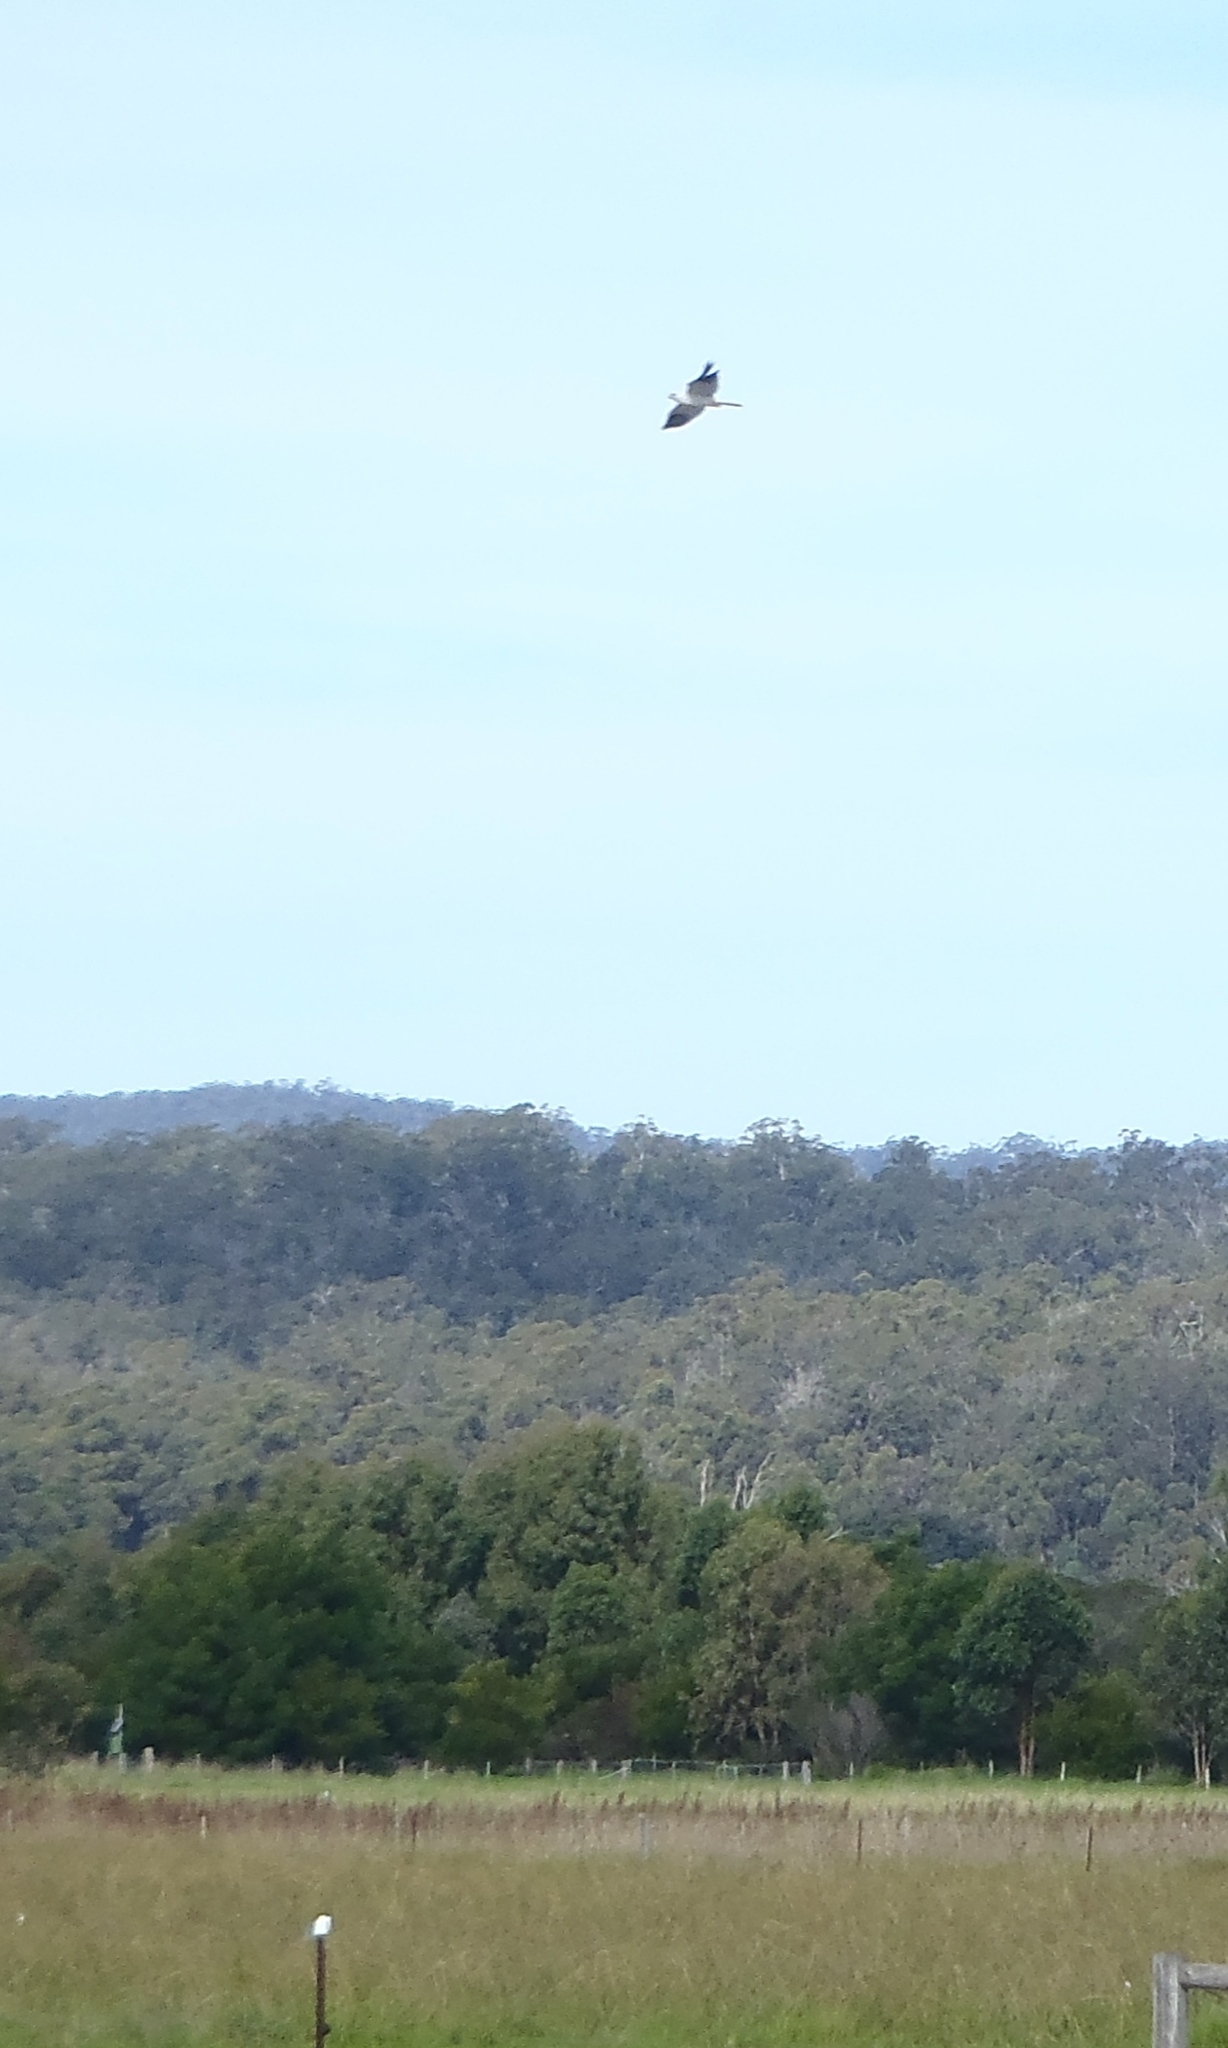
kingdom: Animalia
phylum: Chordata
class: Aves
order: Accipitriformes
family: Accipitridae
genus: Elanus
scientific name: Elanus axillaris
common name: Black-shouldered kite
